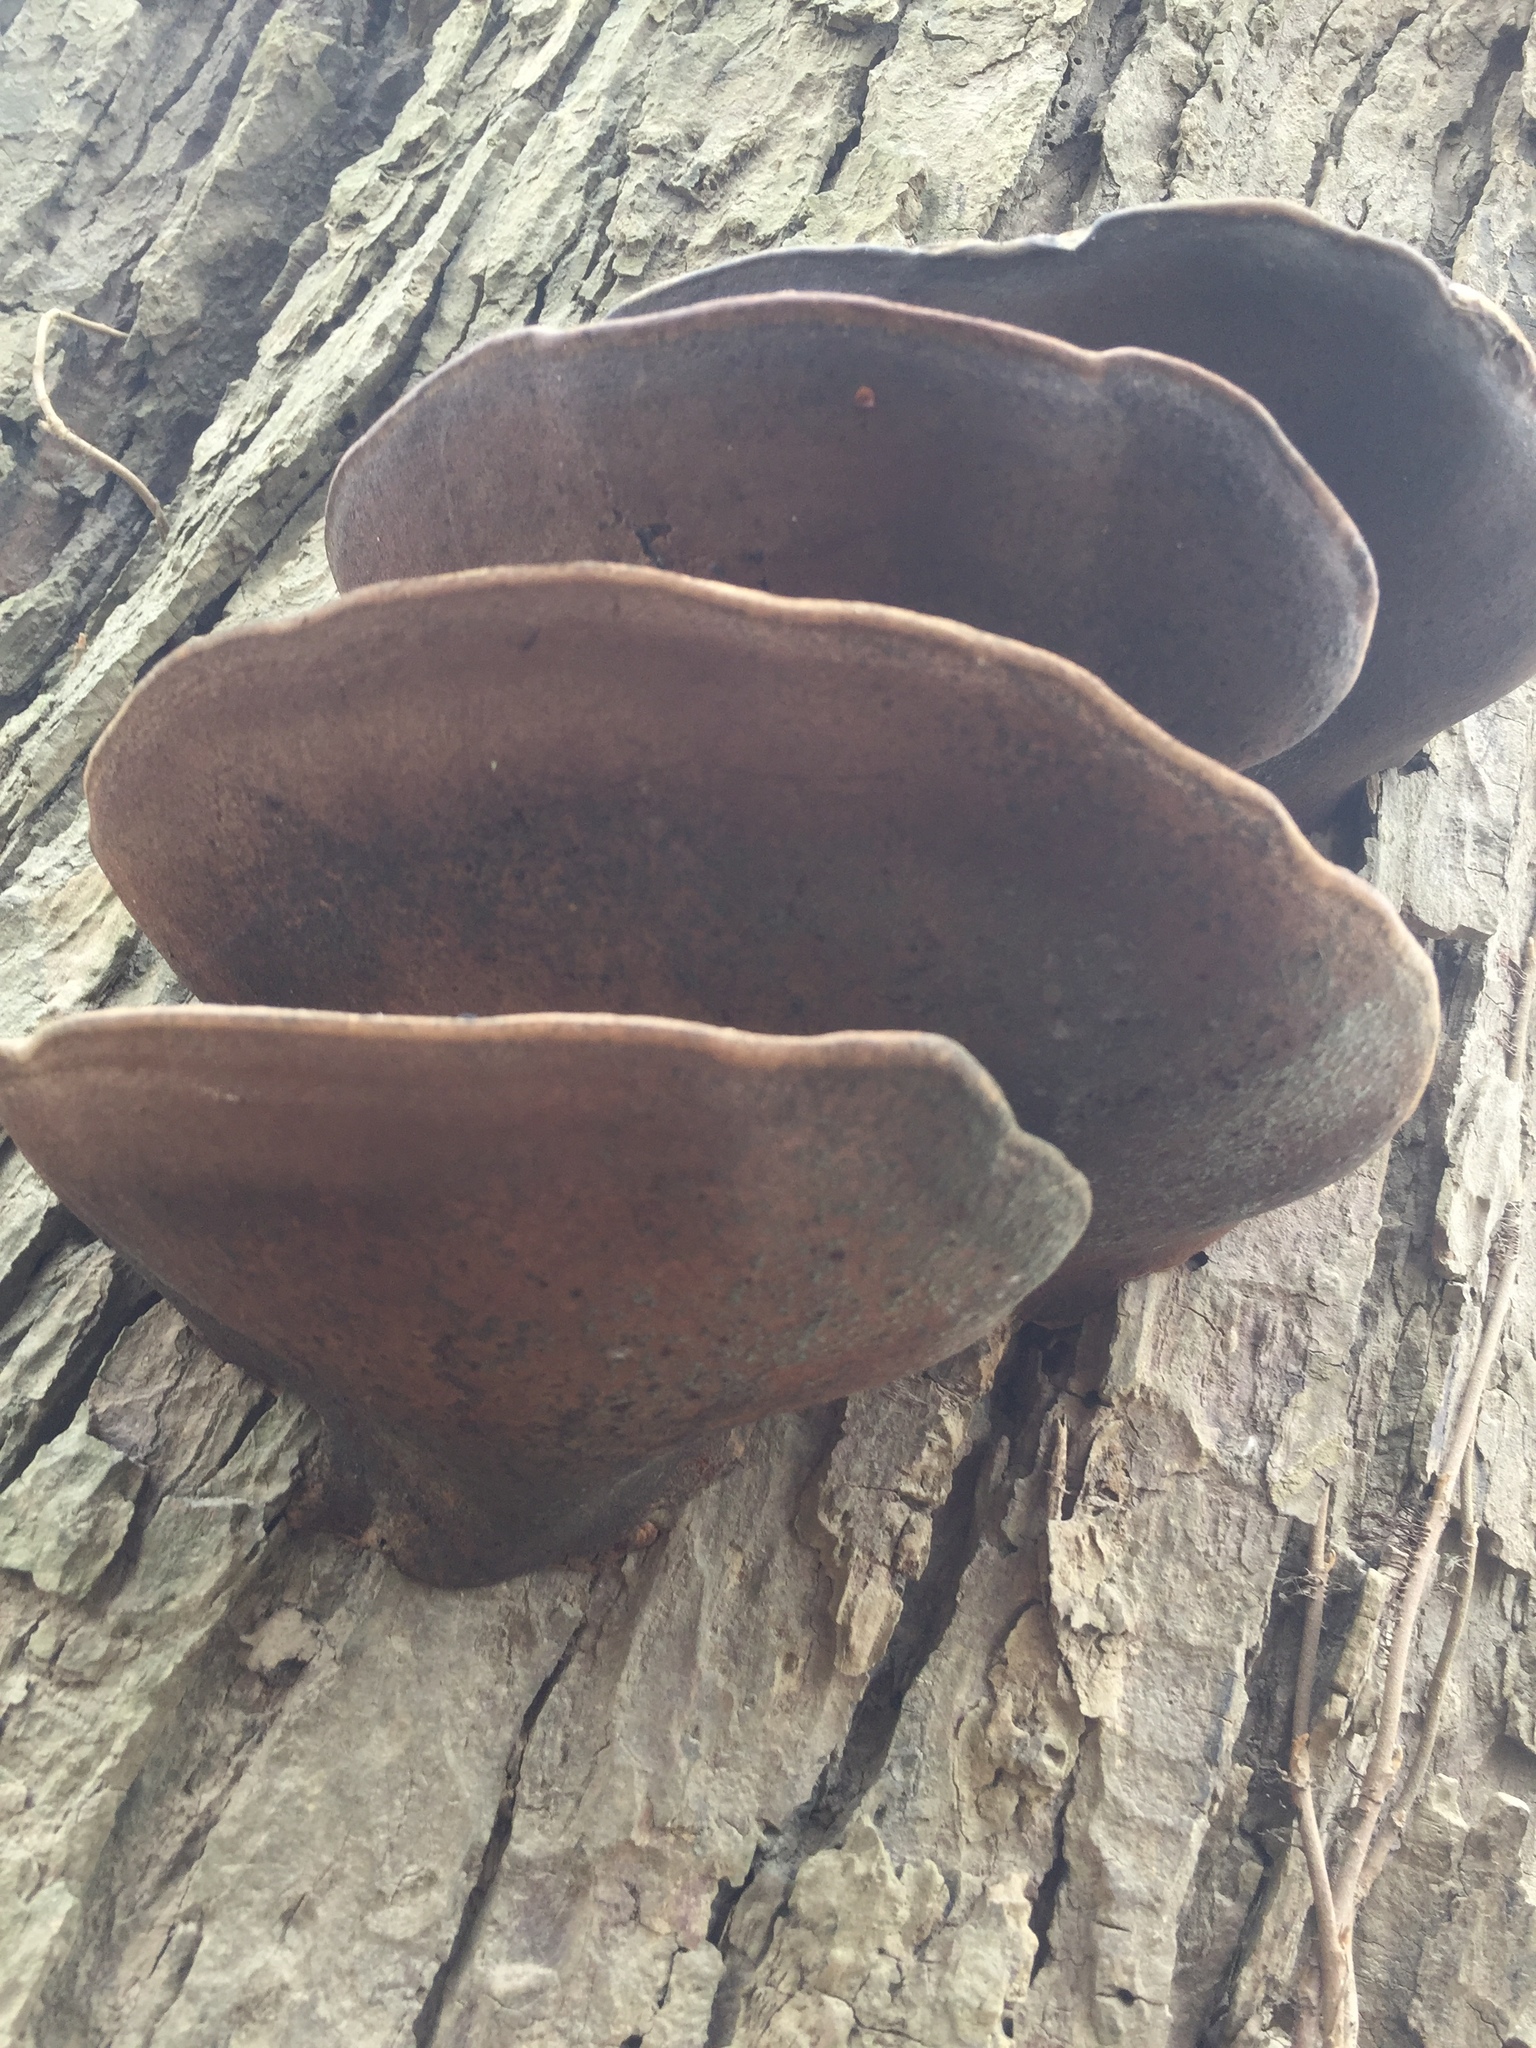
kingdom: Fungi
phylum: Basidiomycota
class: Agaricomycetes
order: Polyporales
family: Polyporaceae
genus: Ganoderma
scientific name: Ganoderma applanatum
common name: Artist's bracket
